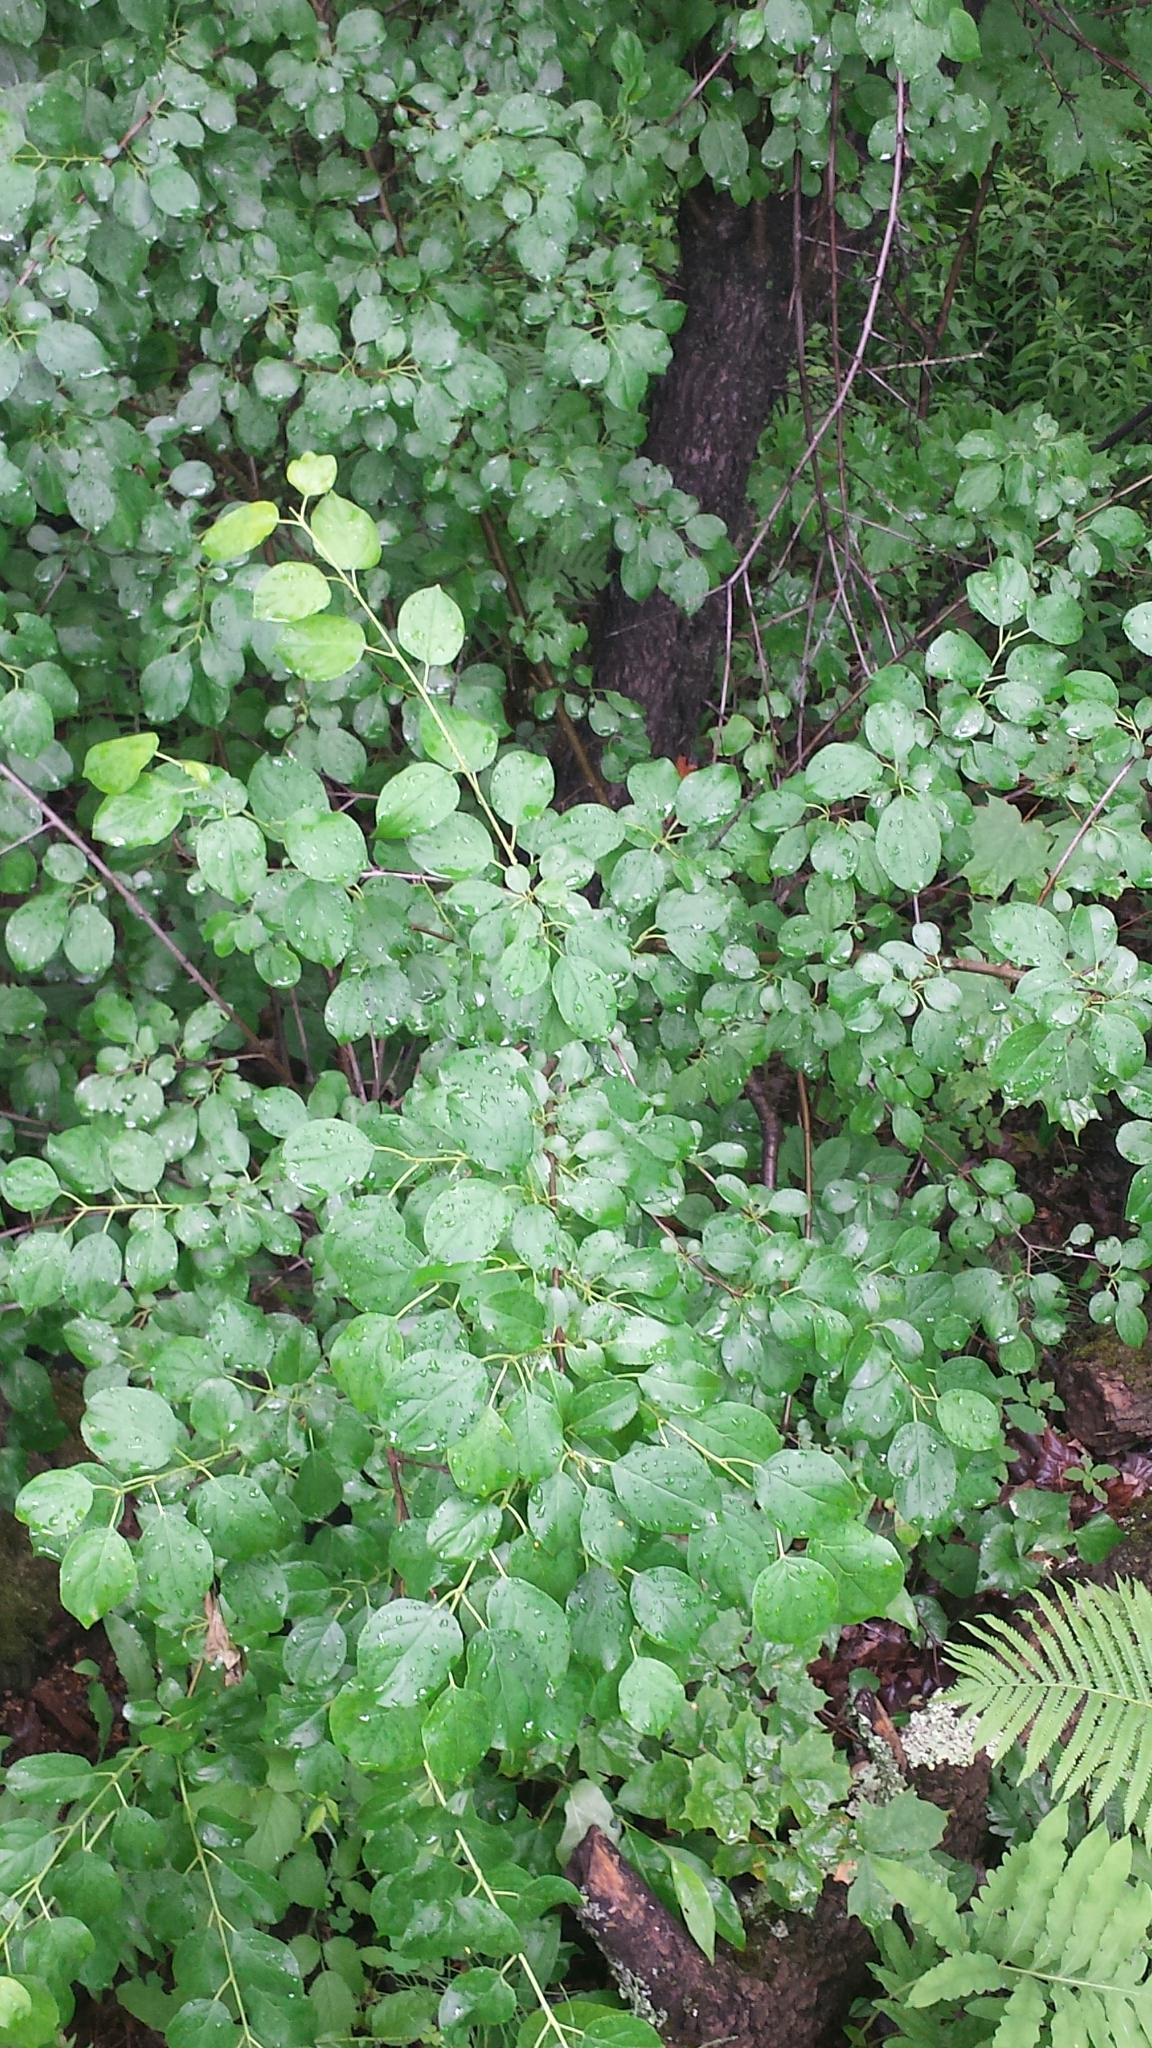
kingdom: Plantae
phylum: Tracheophyta
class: Magnoliopsida
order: Rosales
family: Rhamnaceae
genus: Rhamnus
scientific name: Rhamnus cathartica
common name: Common buckthorn
